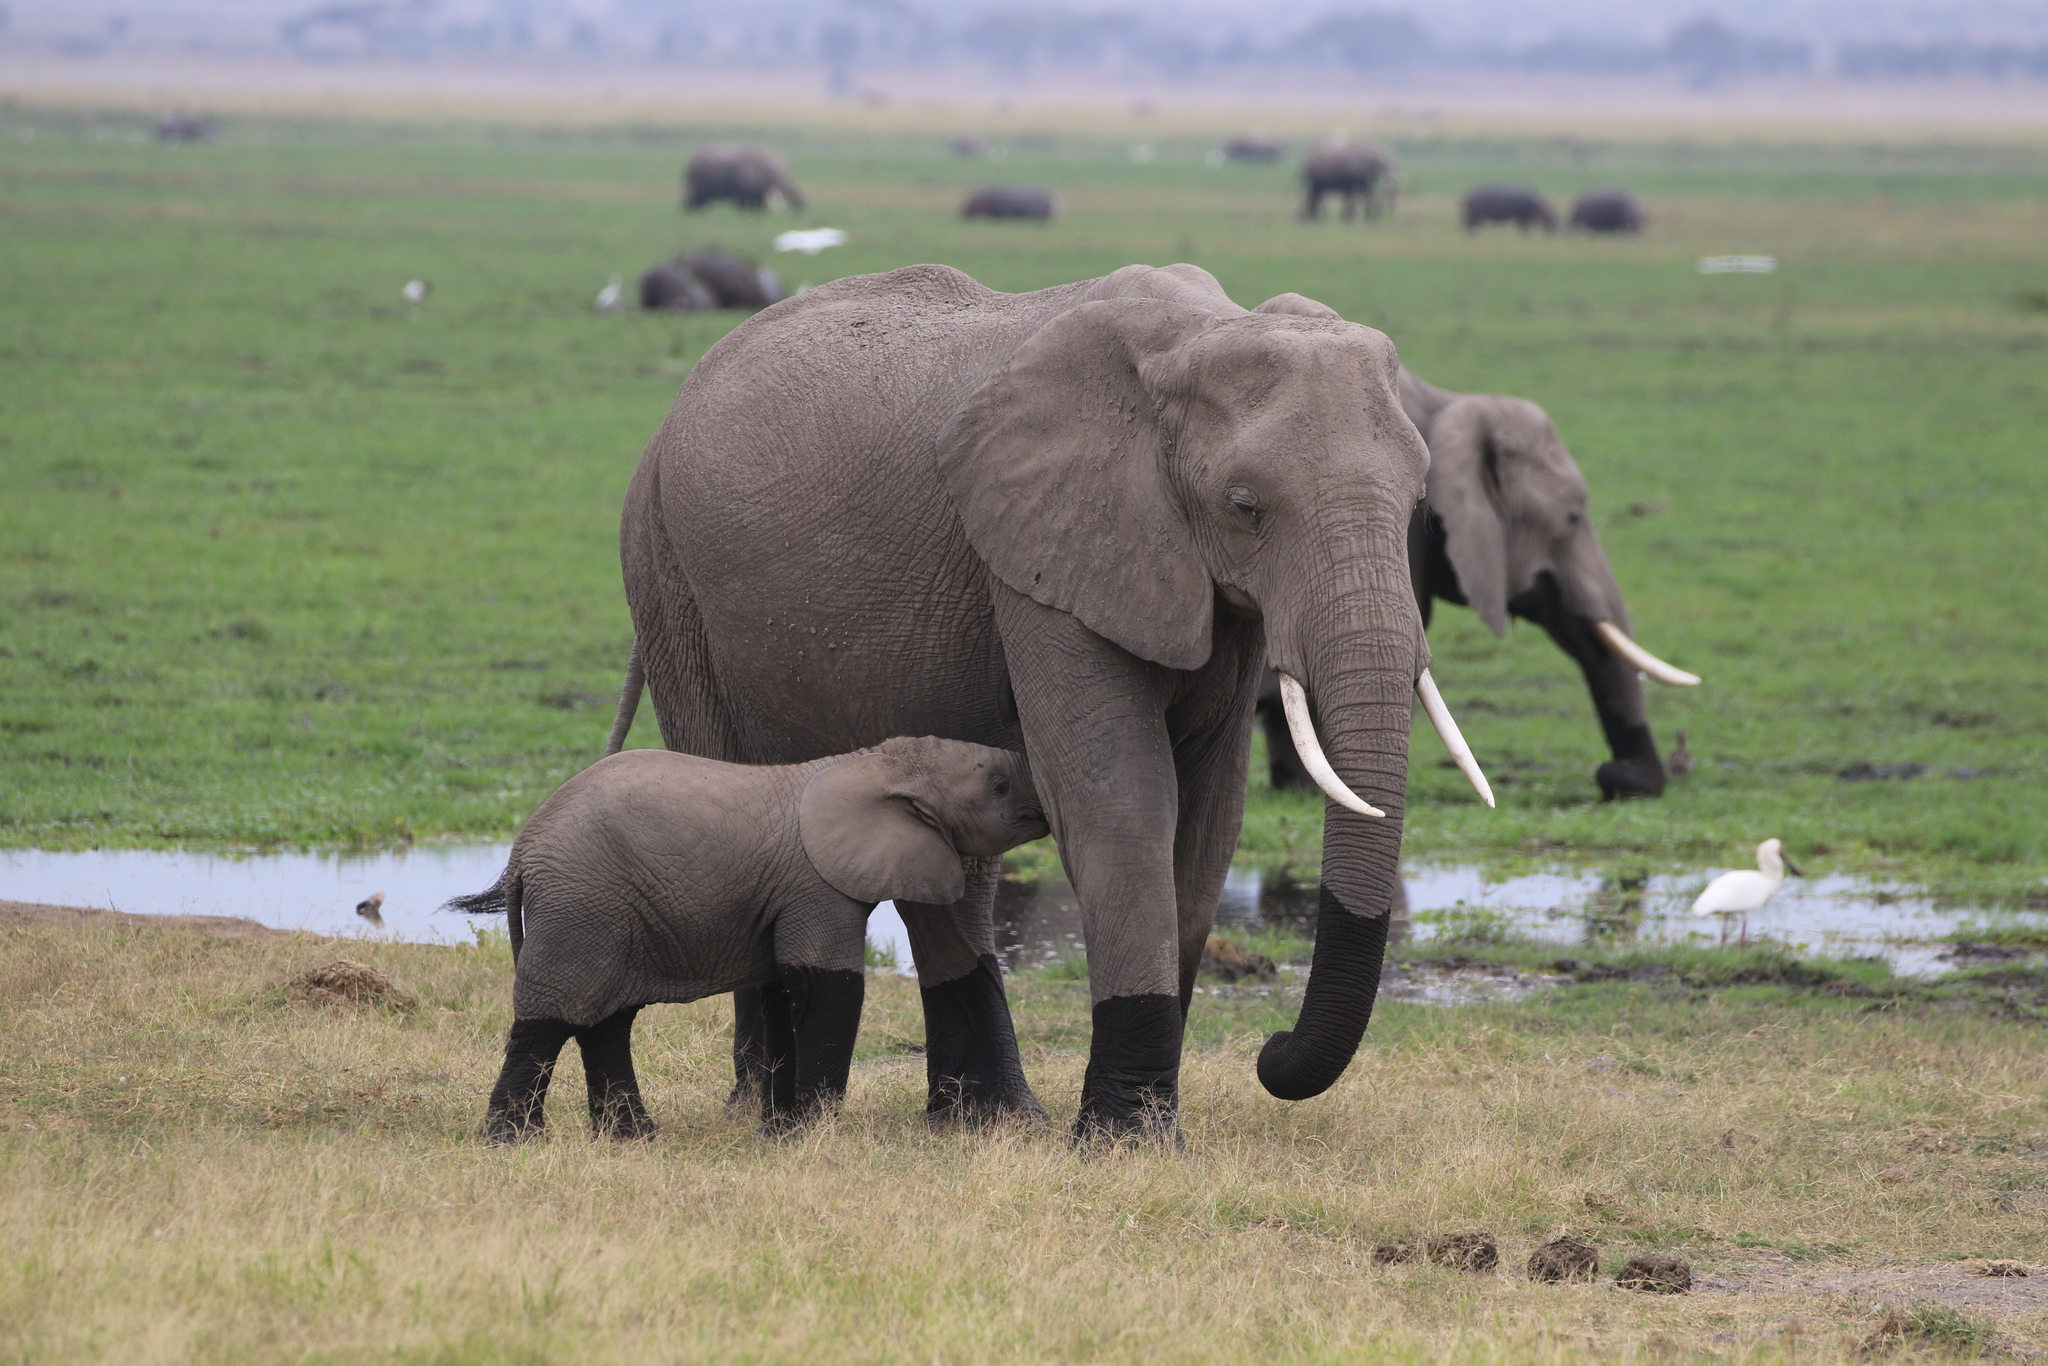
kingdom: Animalia
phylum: Chordata
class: Mammalia
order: Proboscidea
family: Elephantidae
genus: Loxodonta
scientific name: Loxodonta africana
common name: African elephant
